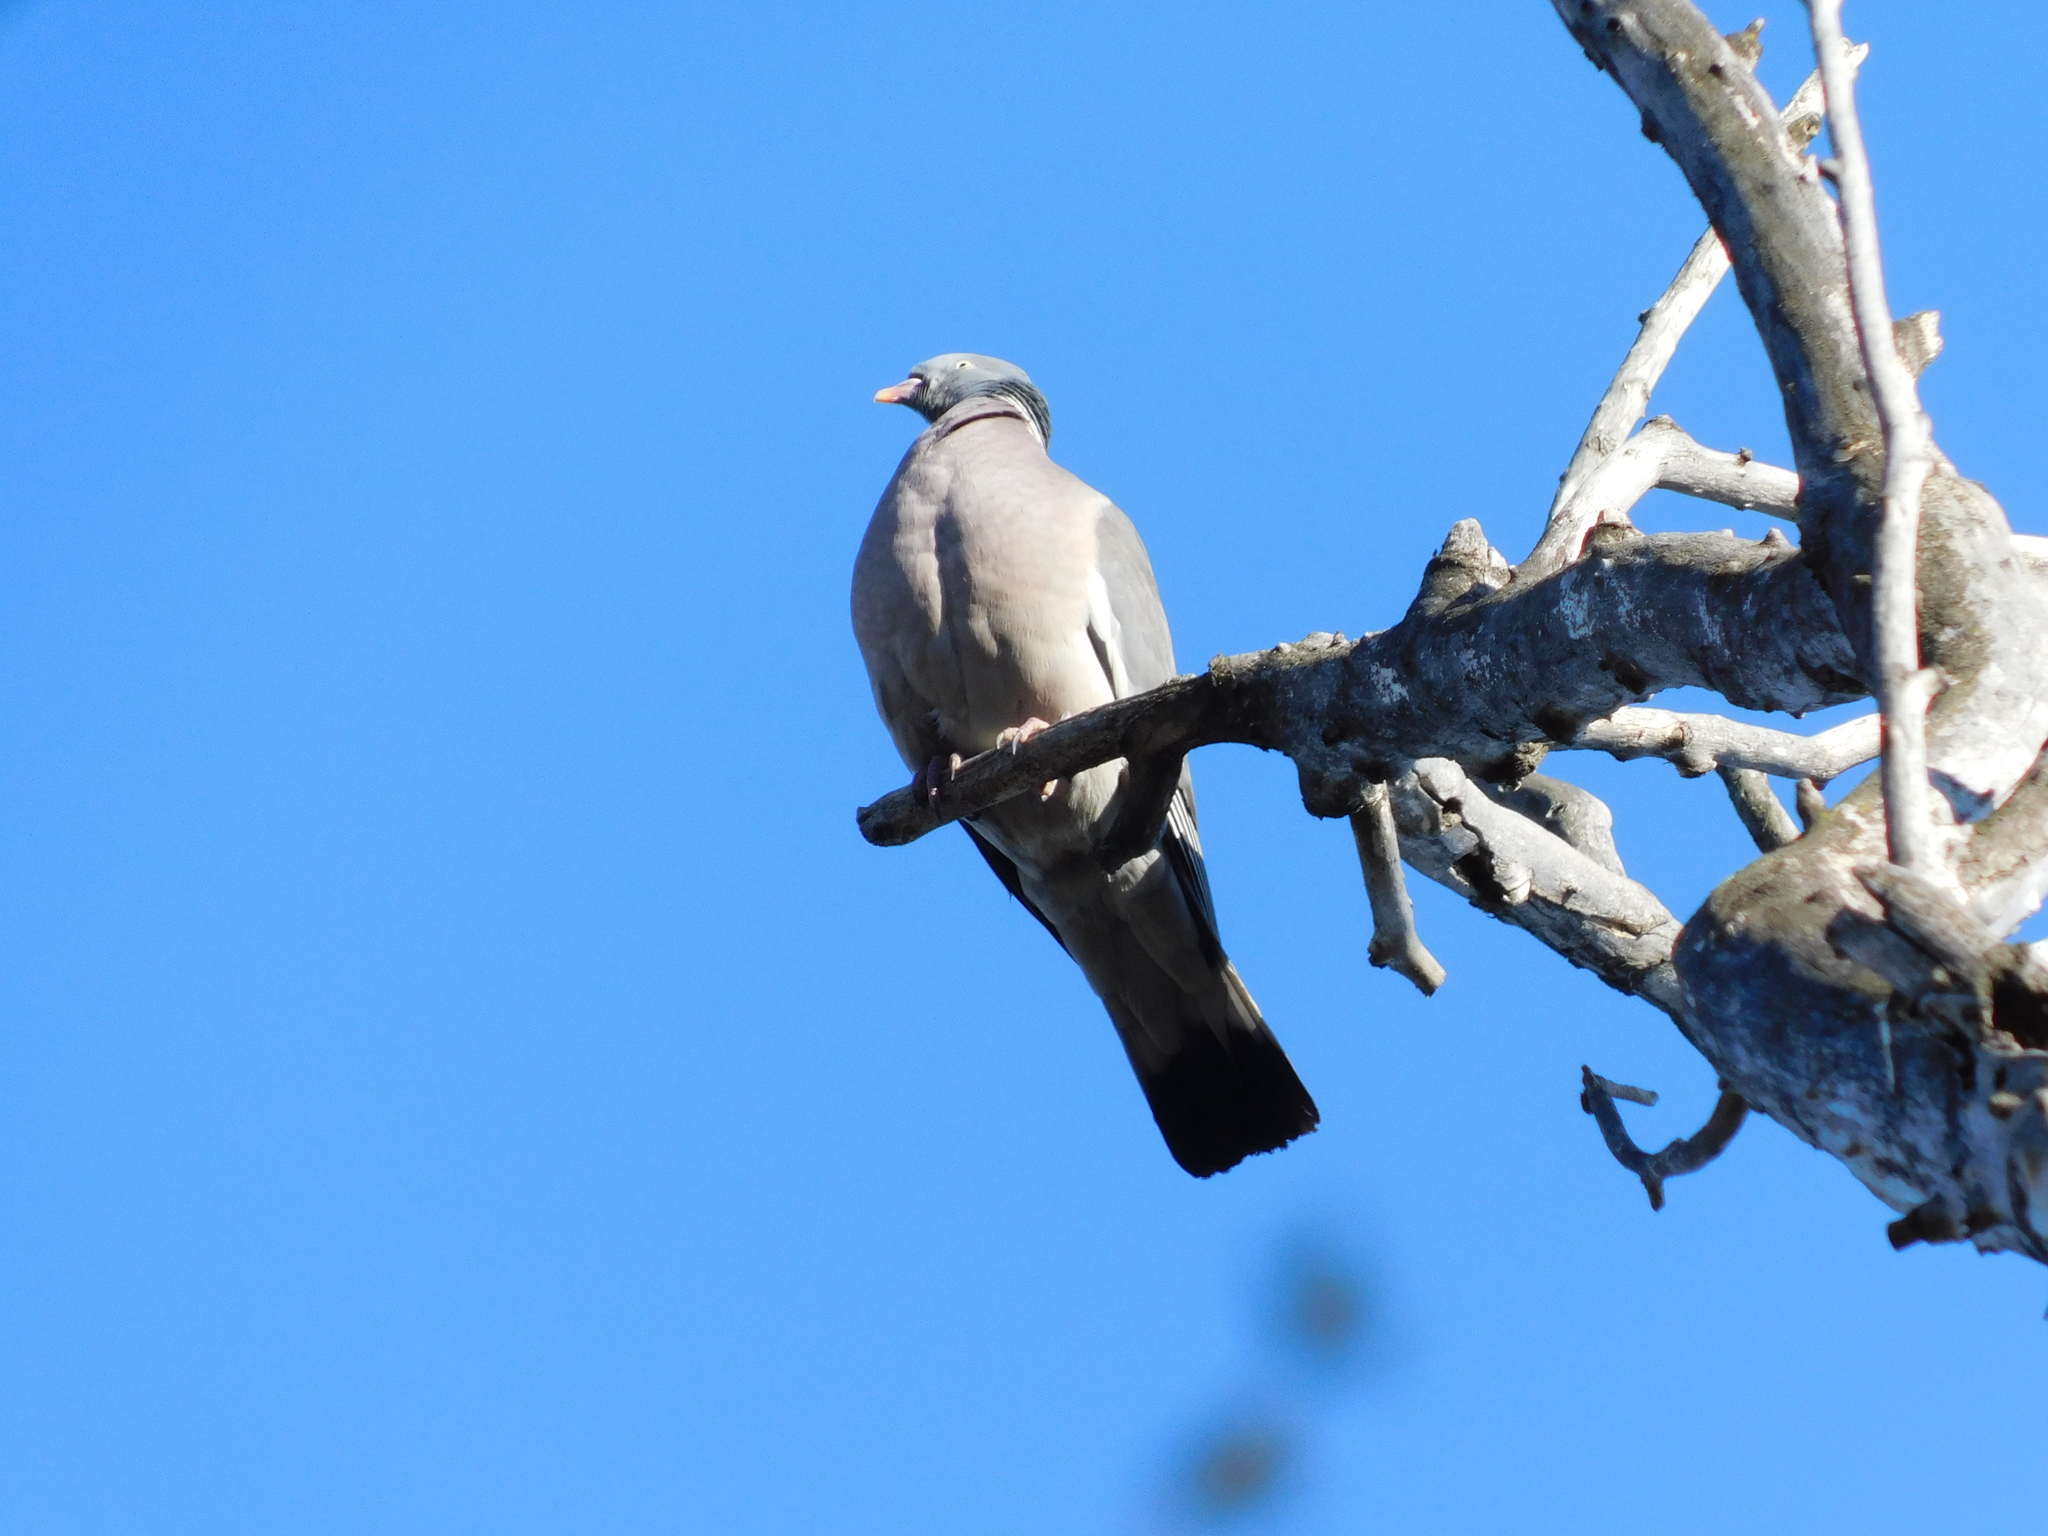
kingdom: Animalia
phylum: Chordata
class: Aves
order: Columbiformes
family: Columbidae
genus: Columba
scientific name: Columba palumbus
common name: Common wood pigeon
